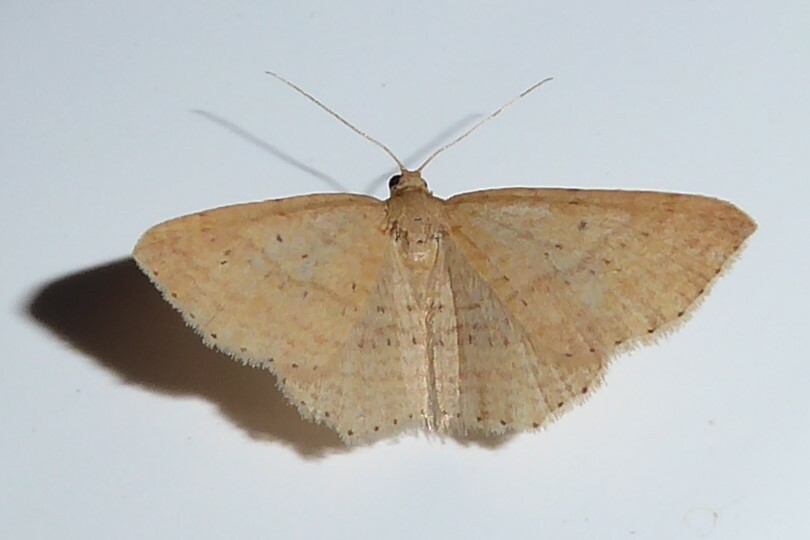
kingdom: Animalia
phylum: Arthropoda
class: Insecta
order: Lepidoptera
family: Geometridae
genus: Epicyme
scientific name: Epicyme rubropunctaria
